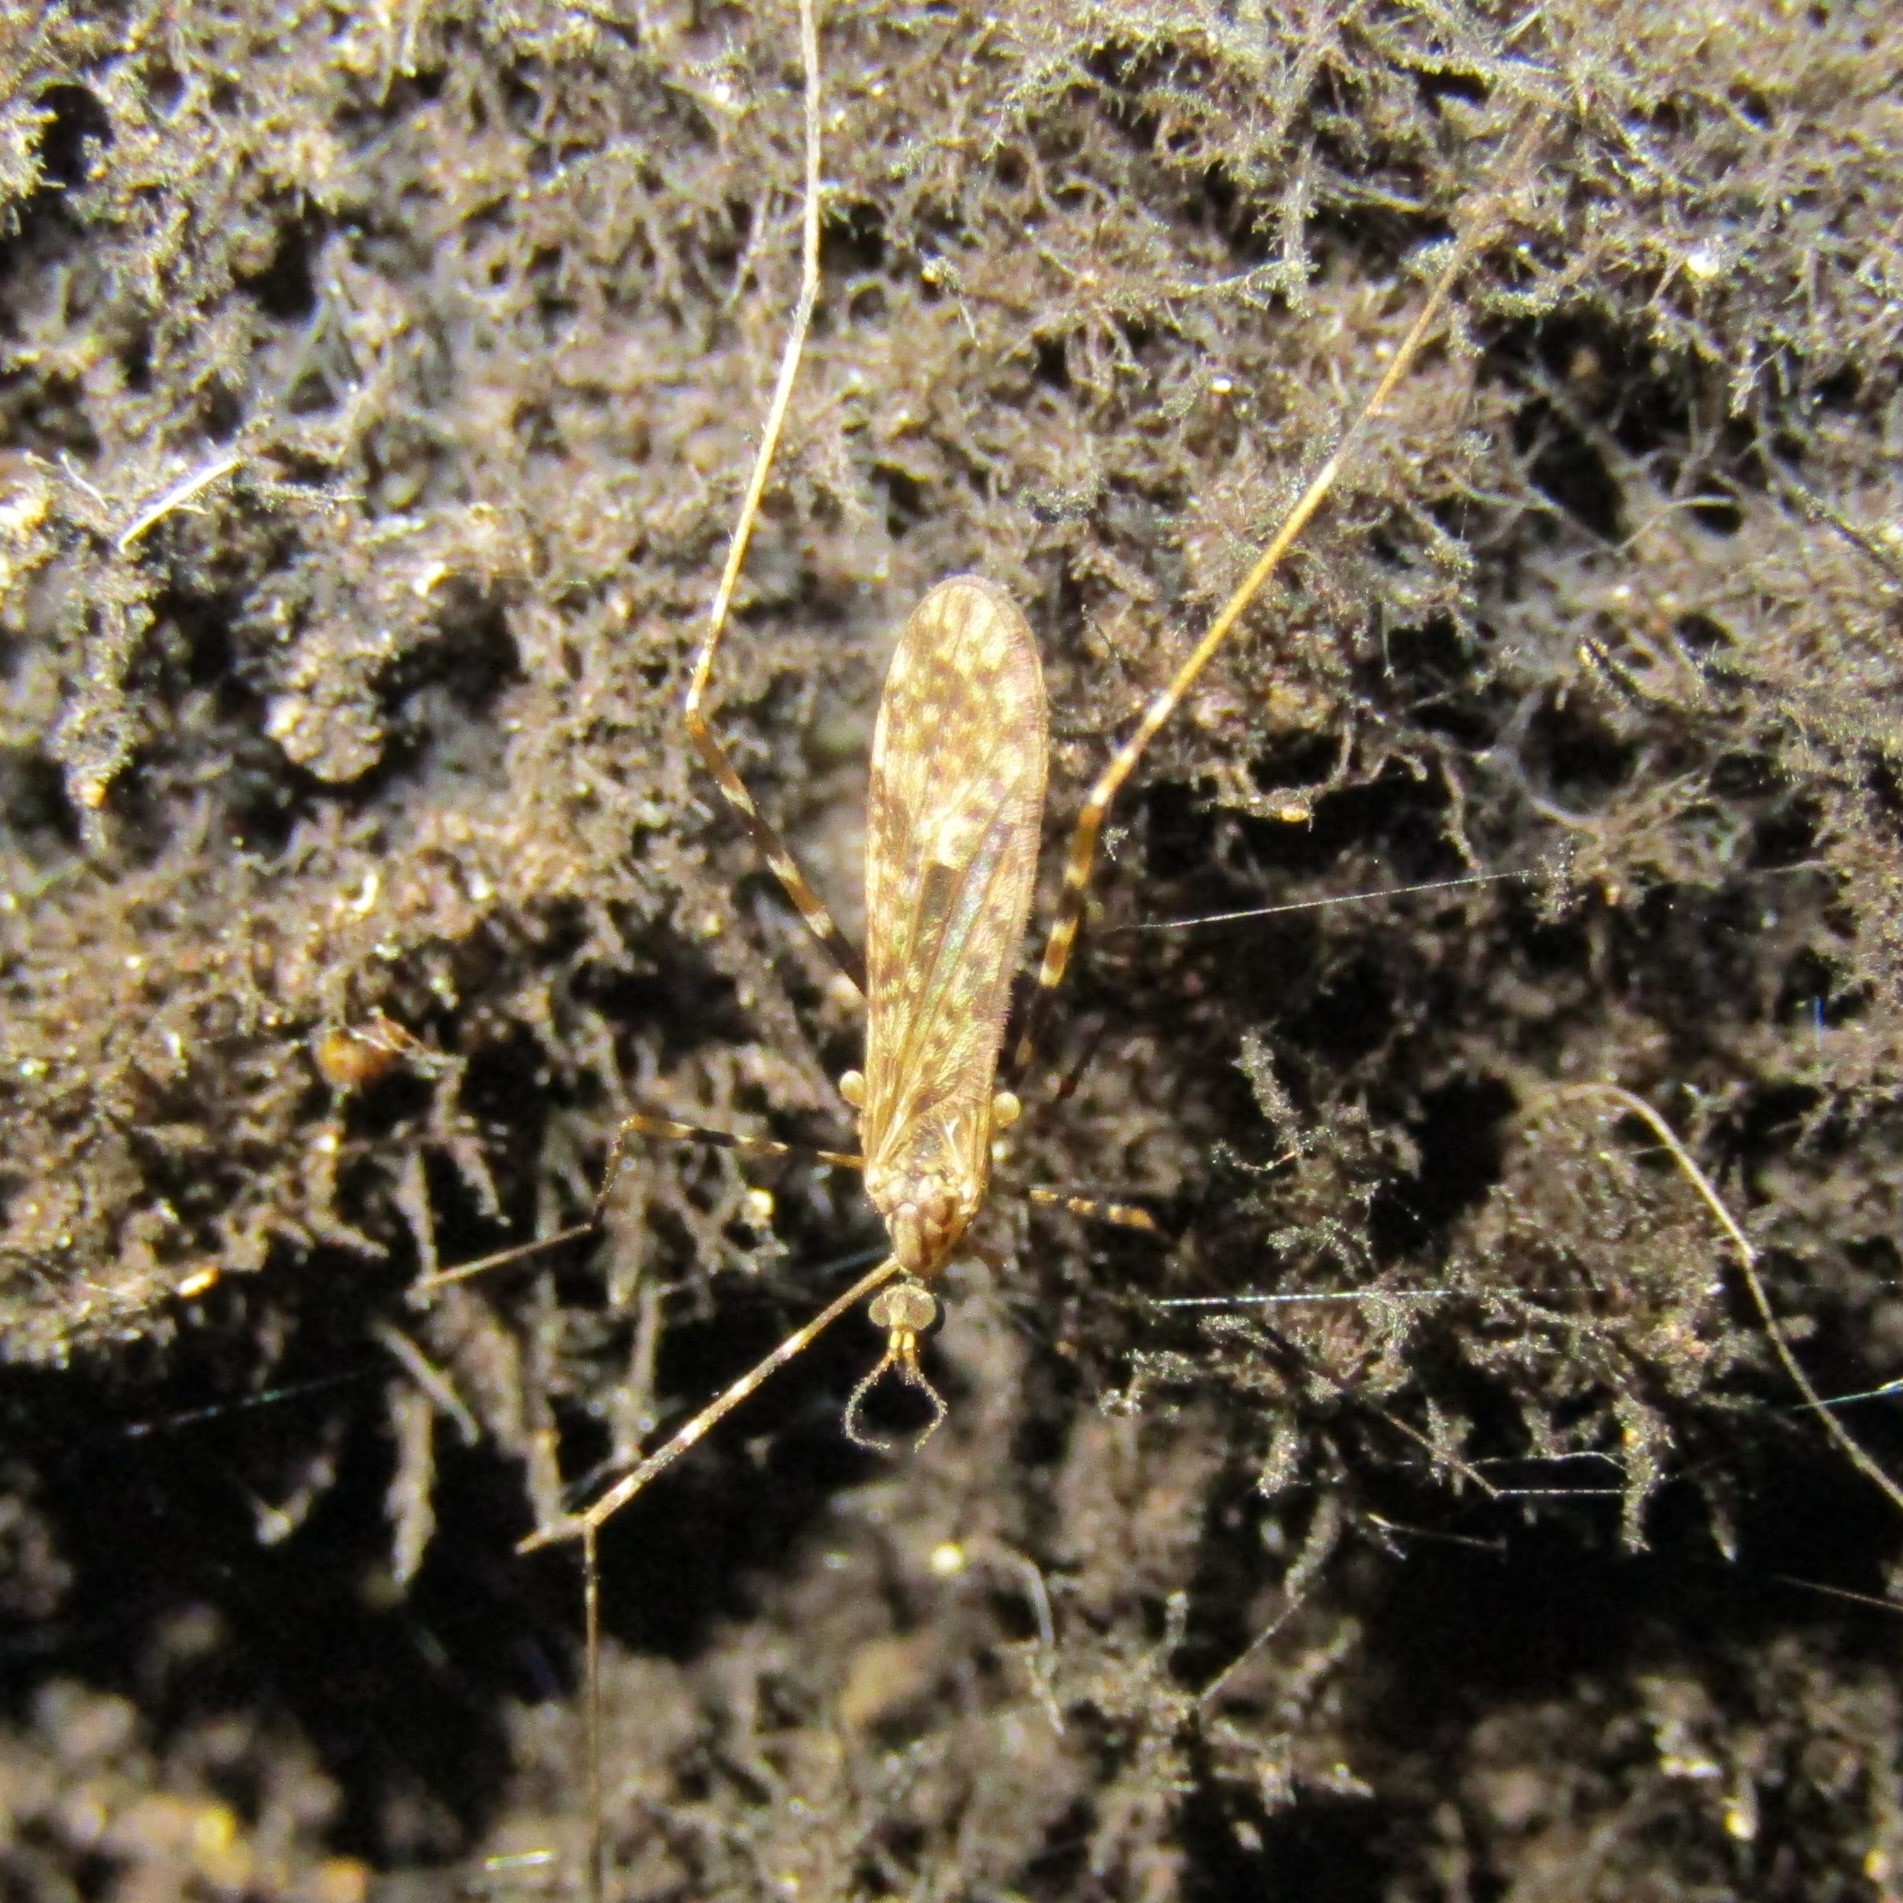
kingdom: Animalia
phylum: Arthropoda
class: Insecta
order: Diptera
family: Limoniidae
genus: Amphineurus
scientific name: Amphineurus hudsoni
